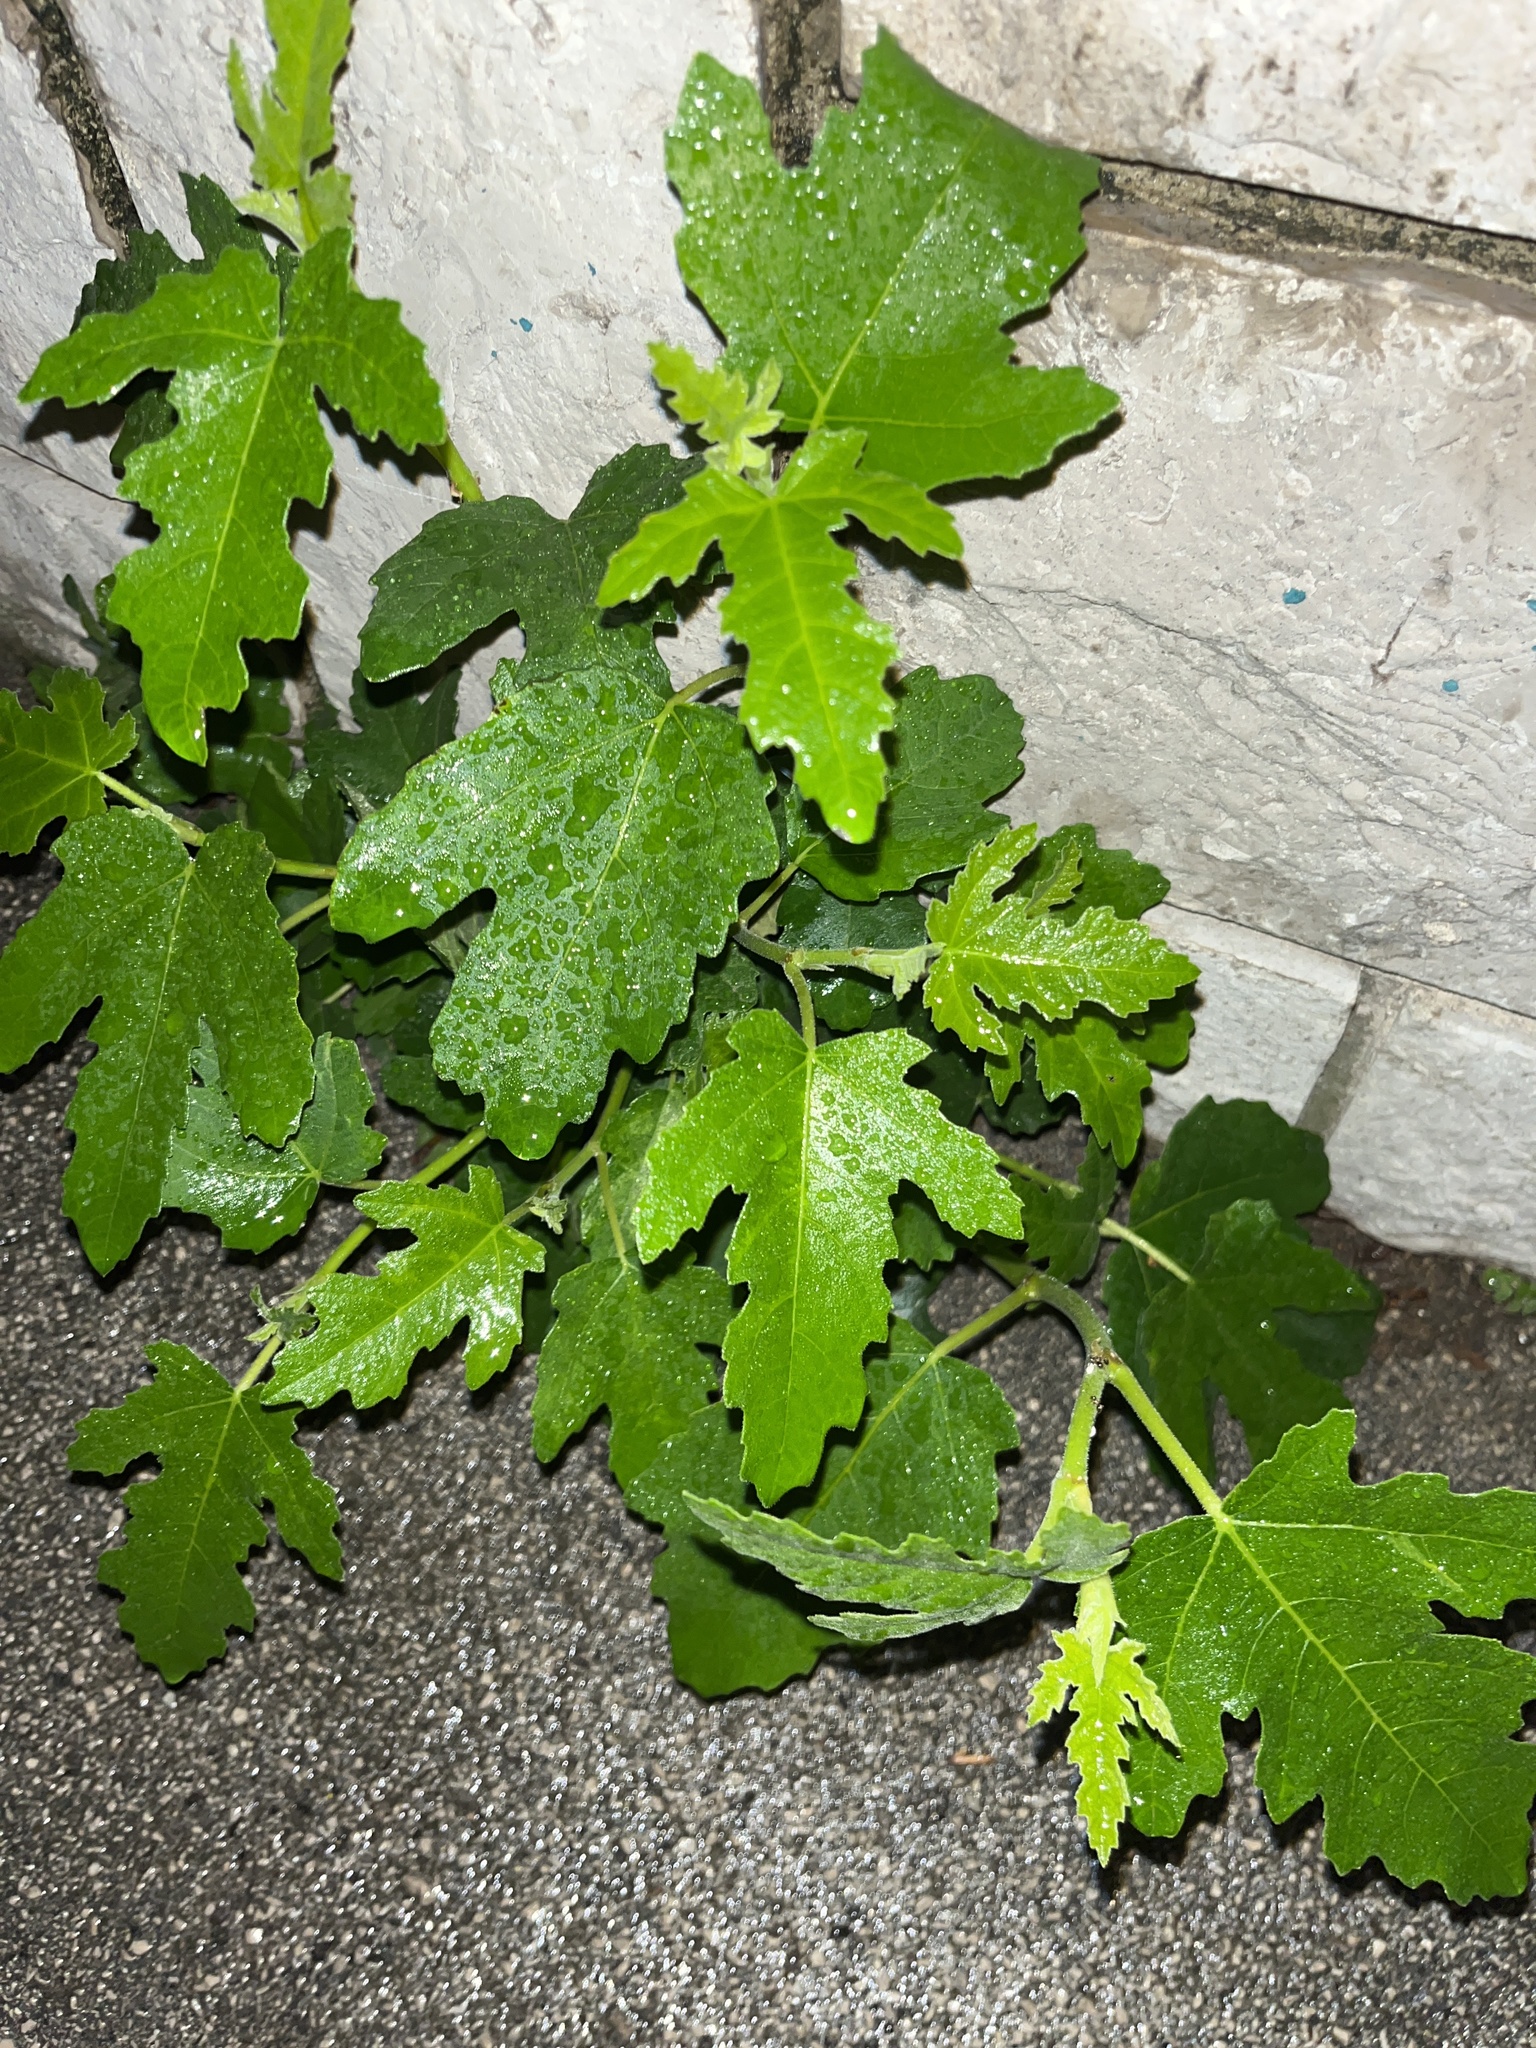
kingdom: Plantae
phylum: Tracheophyta
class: Magnoliopsida
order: Rosales
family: Moraceae
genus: Ficus
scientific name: Ficus carica
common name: Fig
